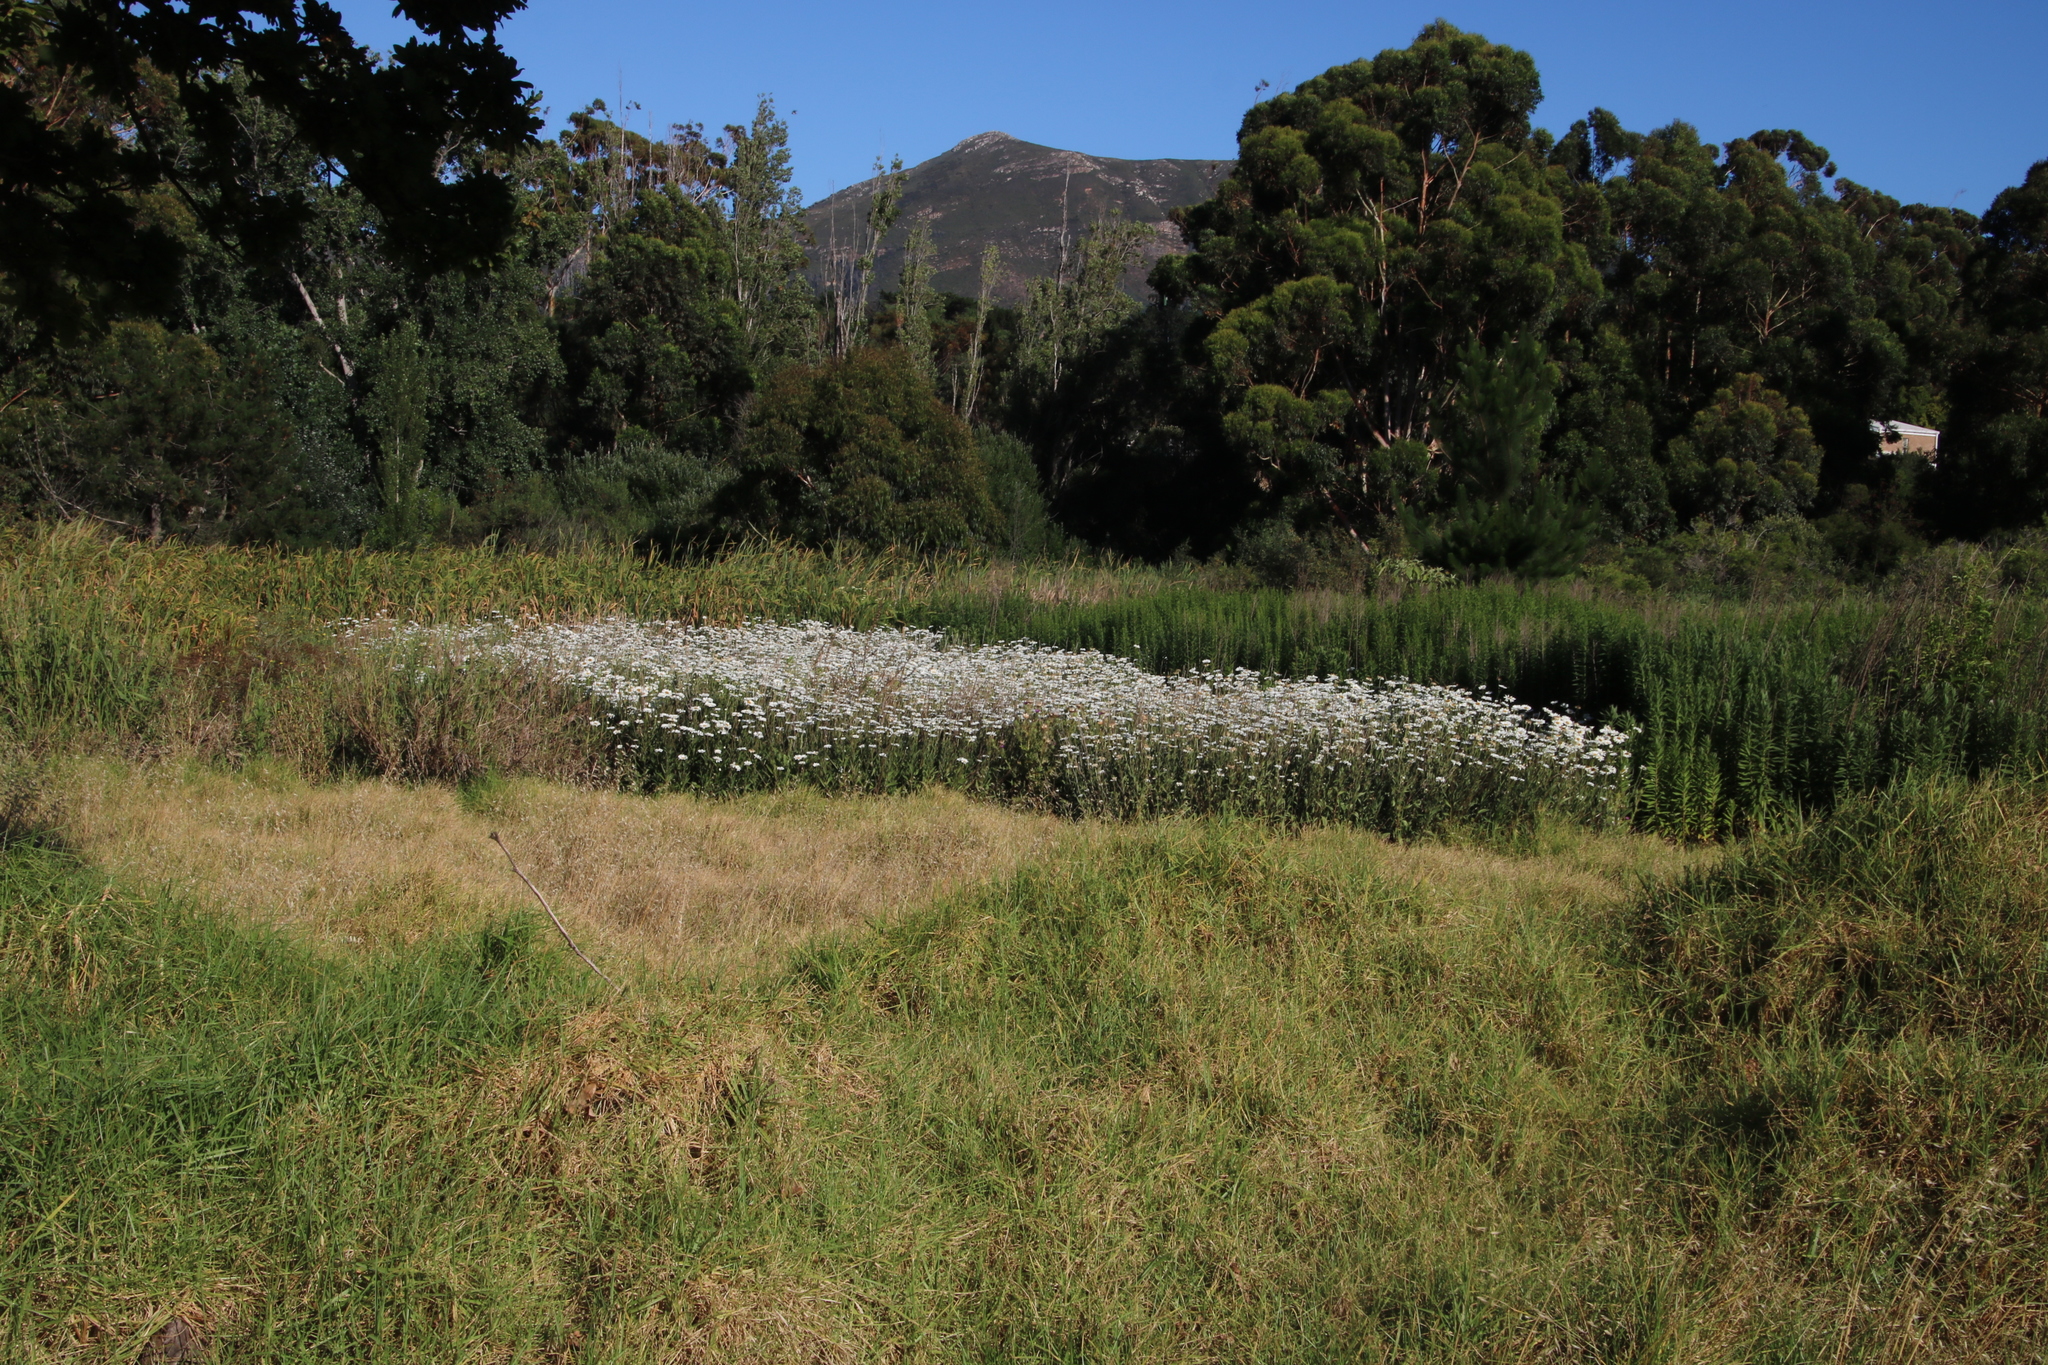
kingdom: Plantae
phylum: Tracheophyta
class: Magnoliopsida
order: Asterales
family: Asteraceae
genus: Leucanthemum
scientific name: Leucanthemum maximum
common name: Max chrysanthemum
